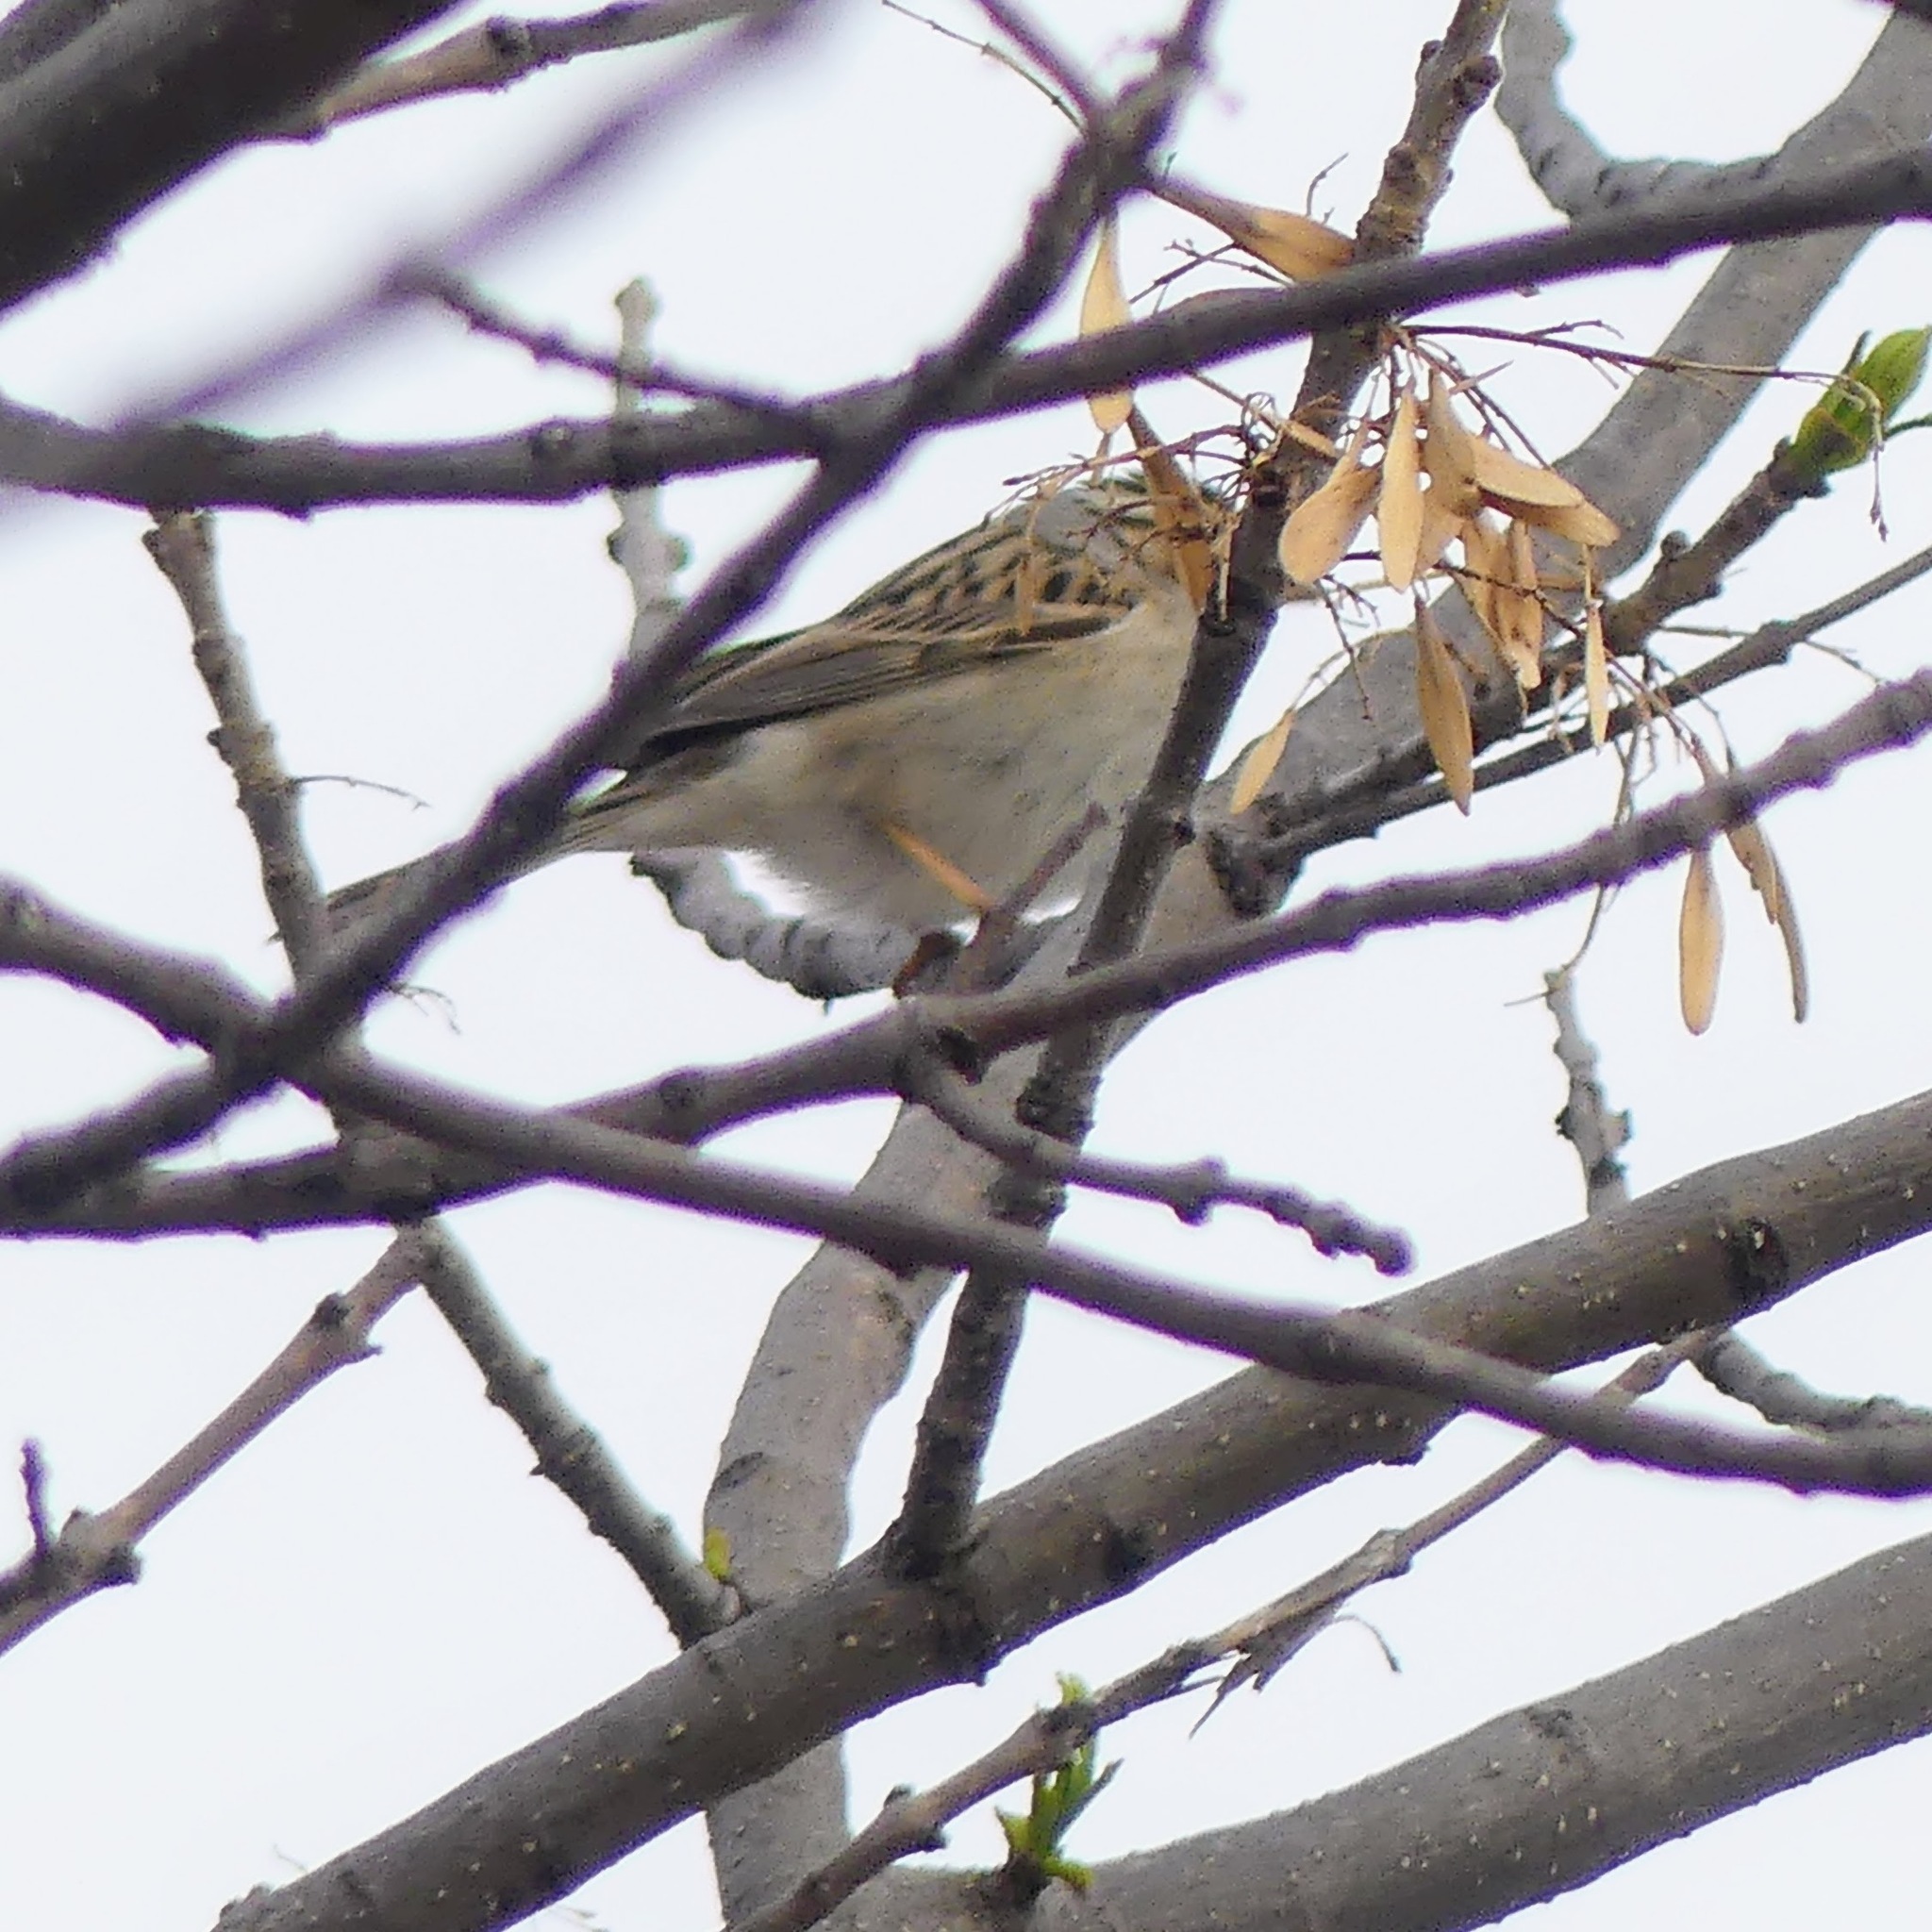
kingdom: Animalia
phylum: Chordata
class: Aves
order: Passeriformes
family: Passerellidae
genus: Spizella
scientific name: Spizella pallida
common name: Clay-colored sparrow
